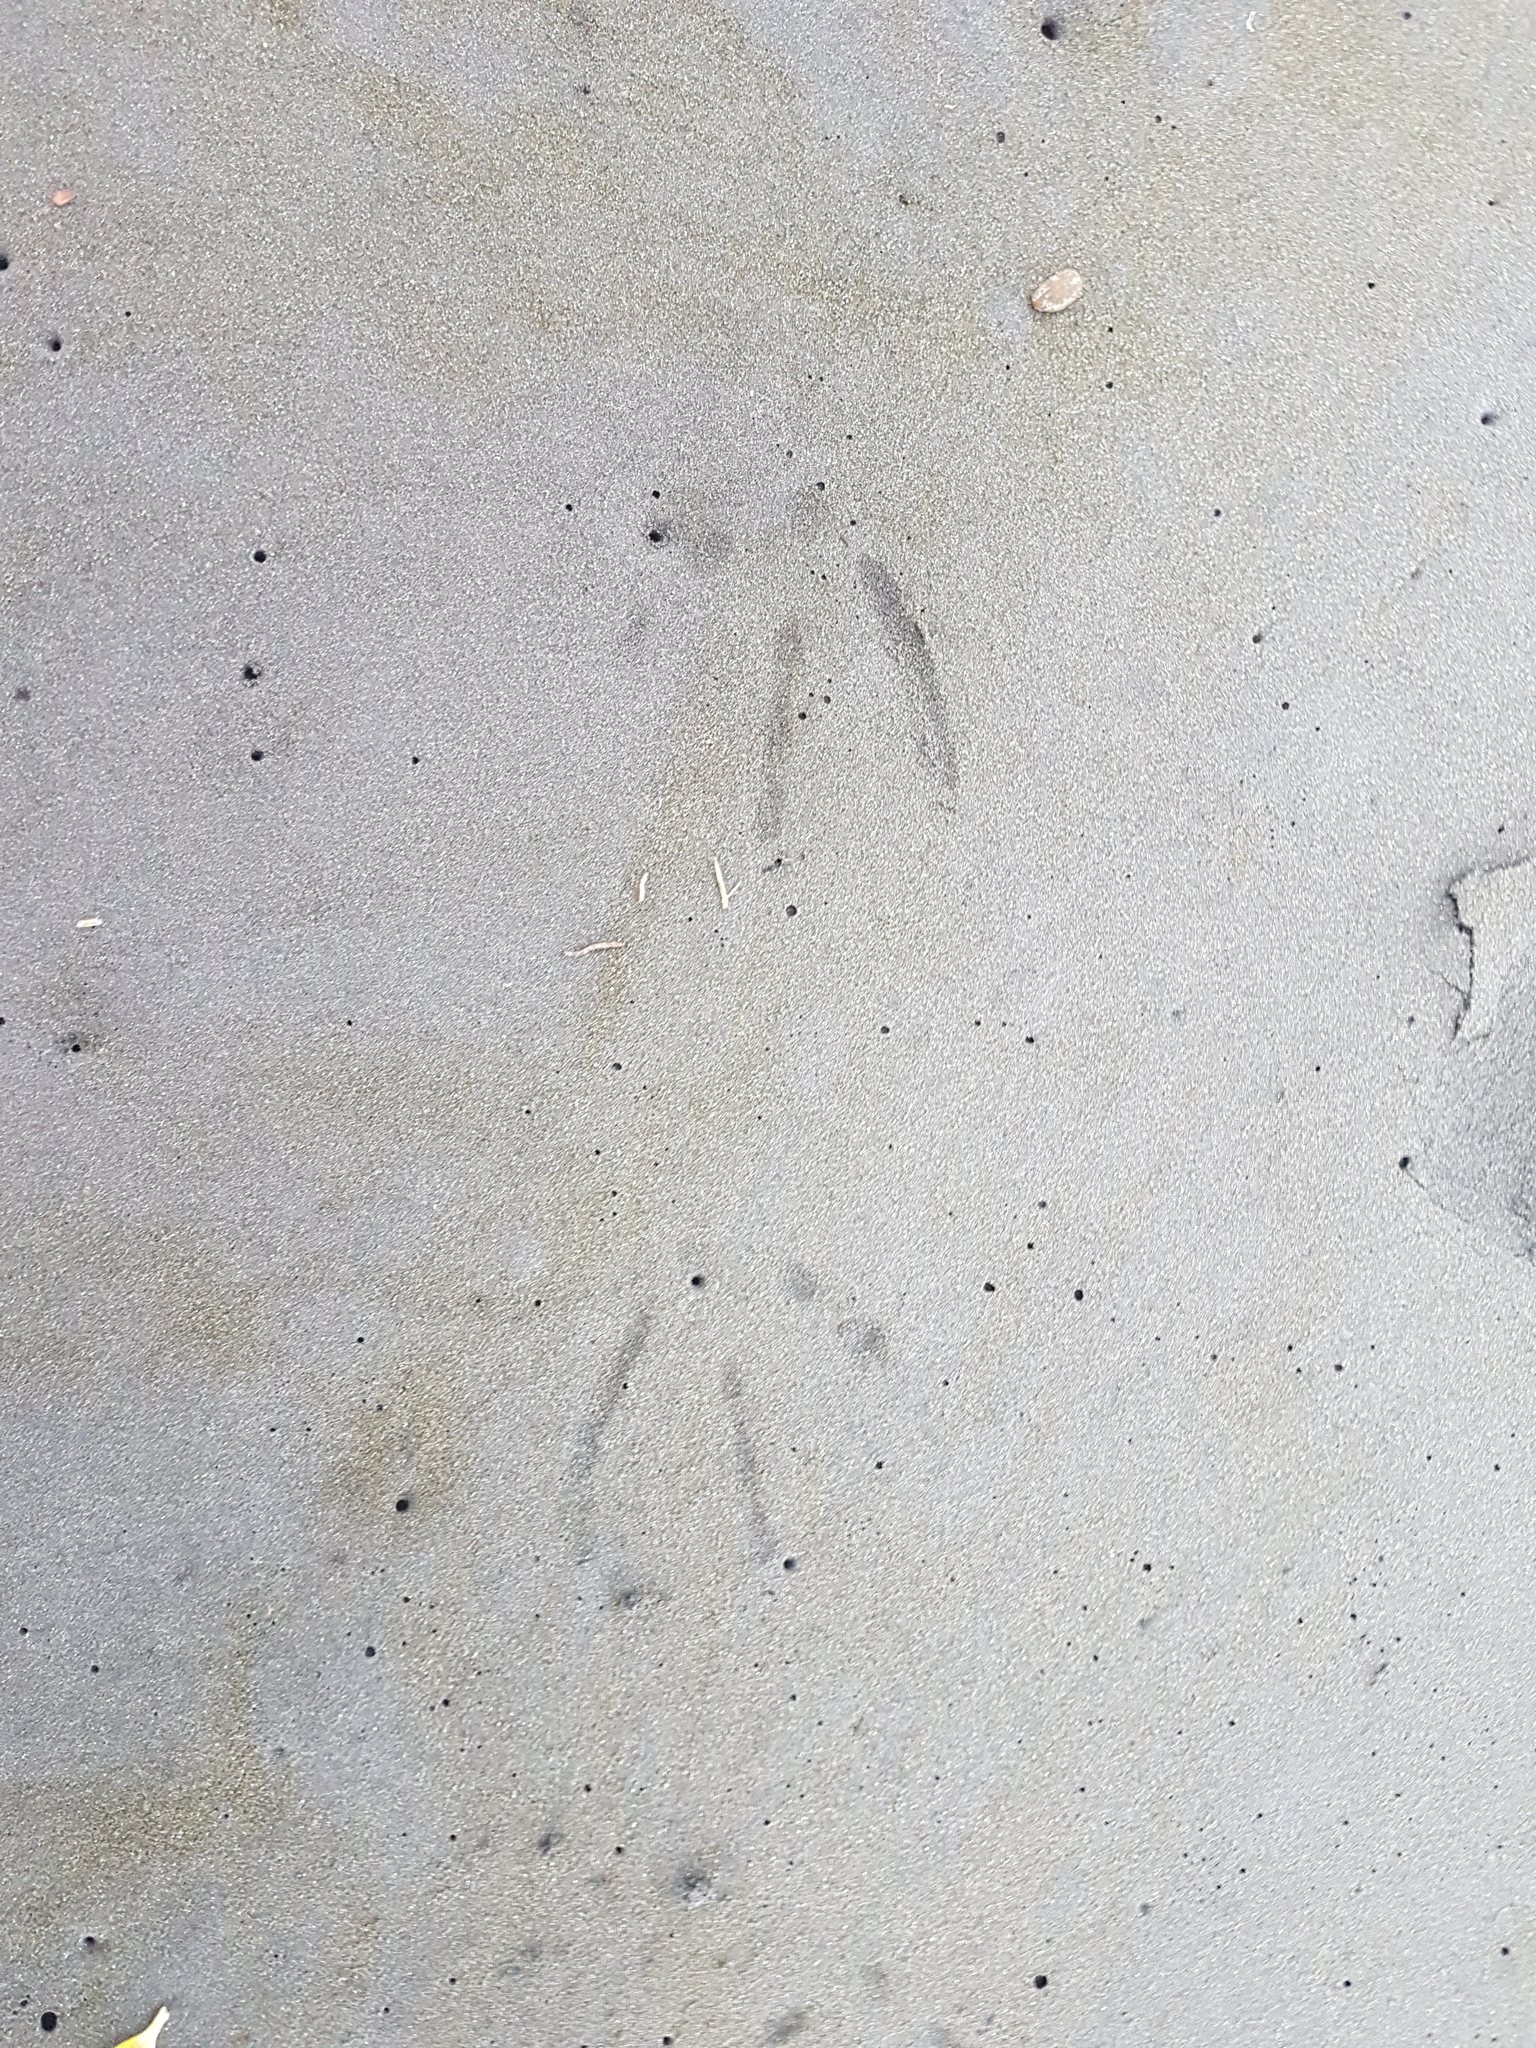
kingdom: Animalia
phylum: Chordata
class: Aves
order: Charadriiformes
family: Laridae
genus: Larus
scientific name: Larus dominicanus
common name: Kelp gull
